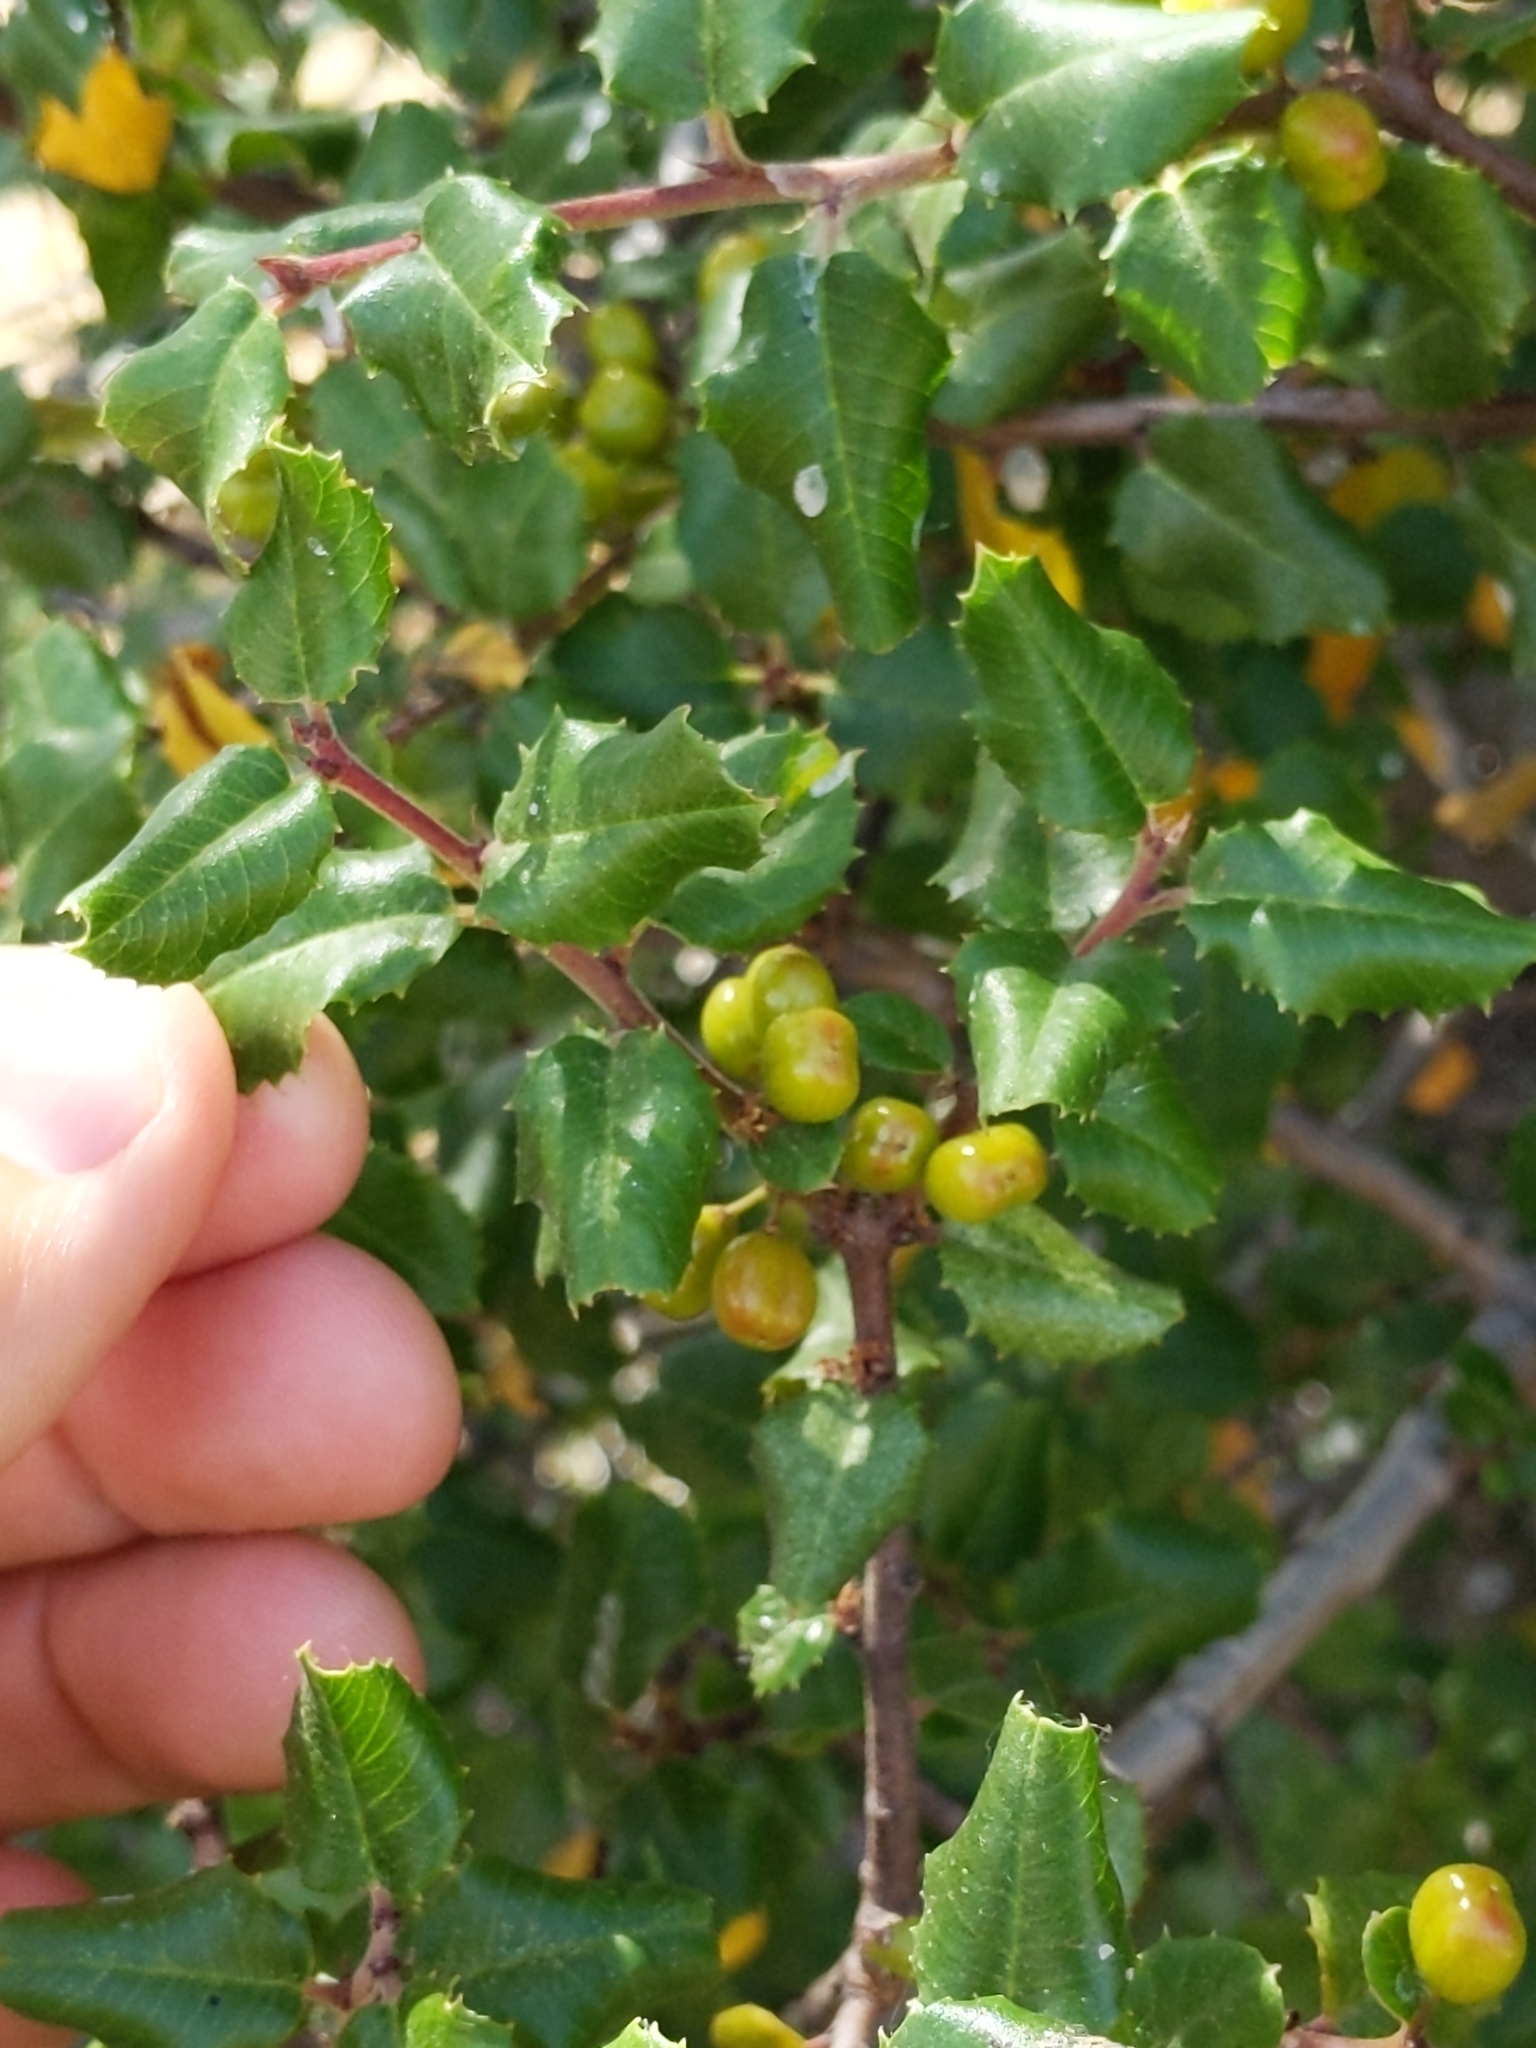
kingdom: Plantae
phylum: Tracheophyta
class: Magnoliopsida
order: Rosales
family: Rhamnaceae
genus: Endotropis
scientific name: Endotropis crocea
